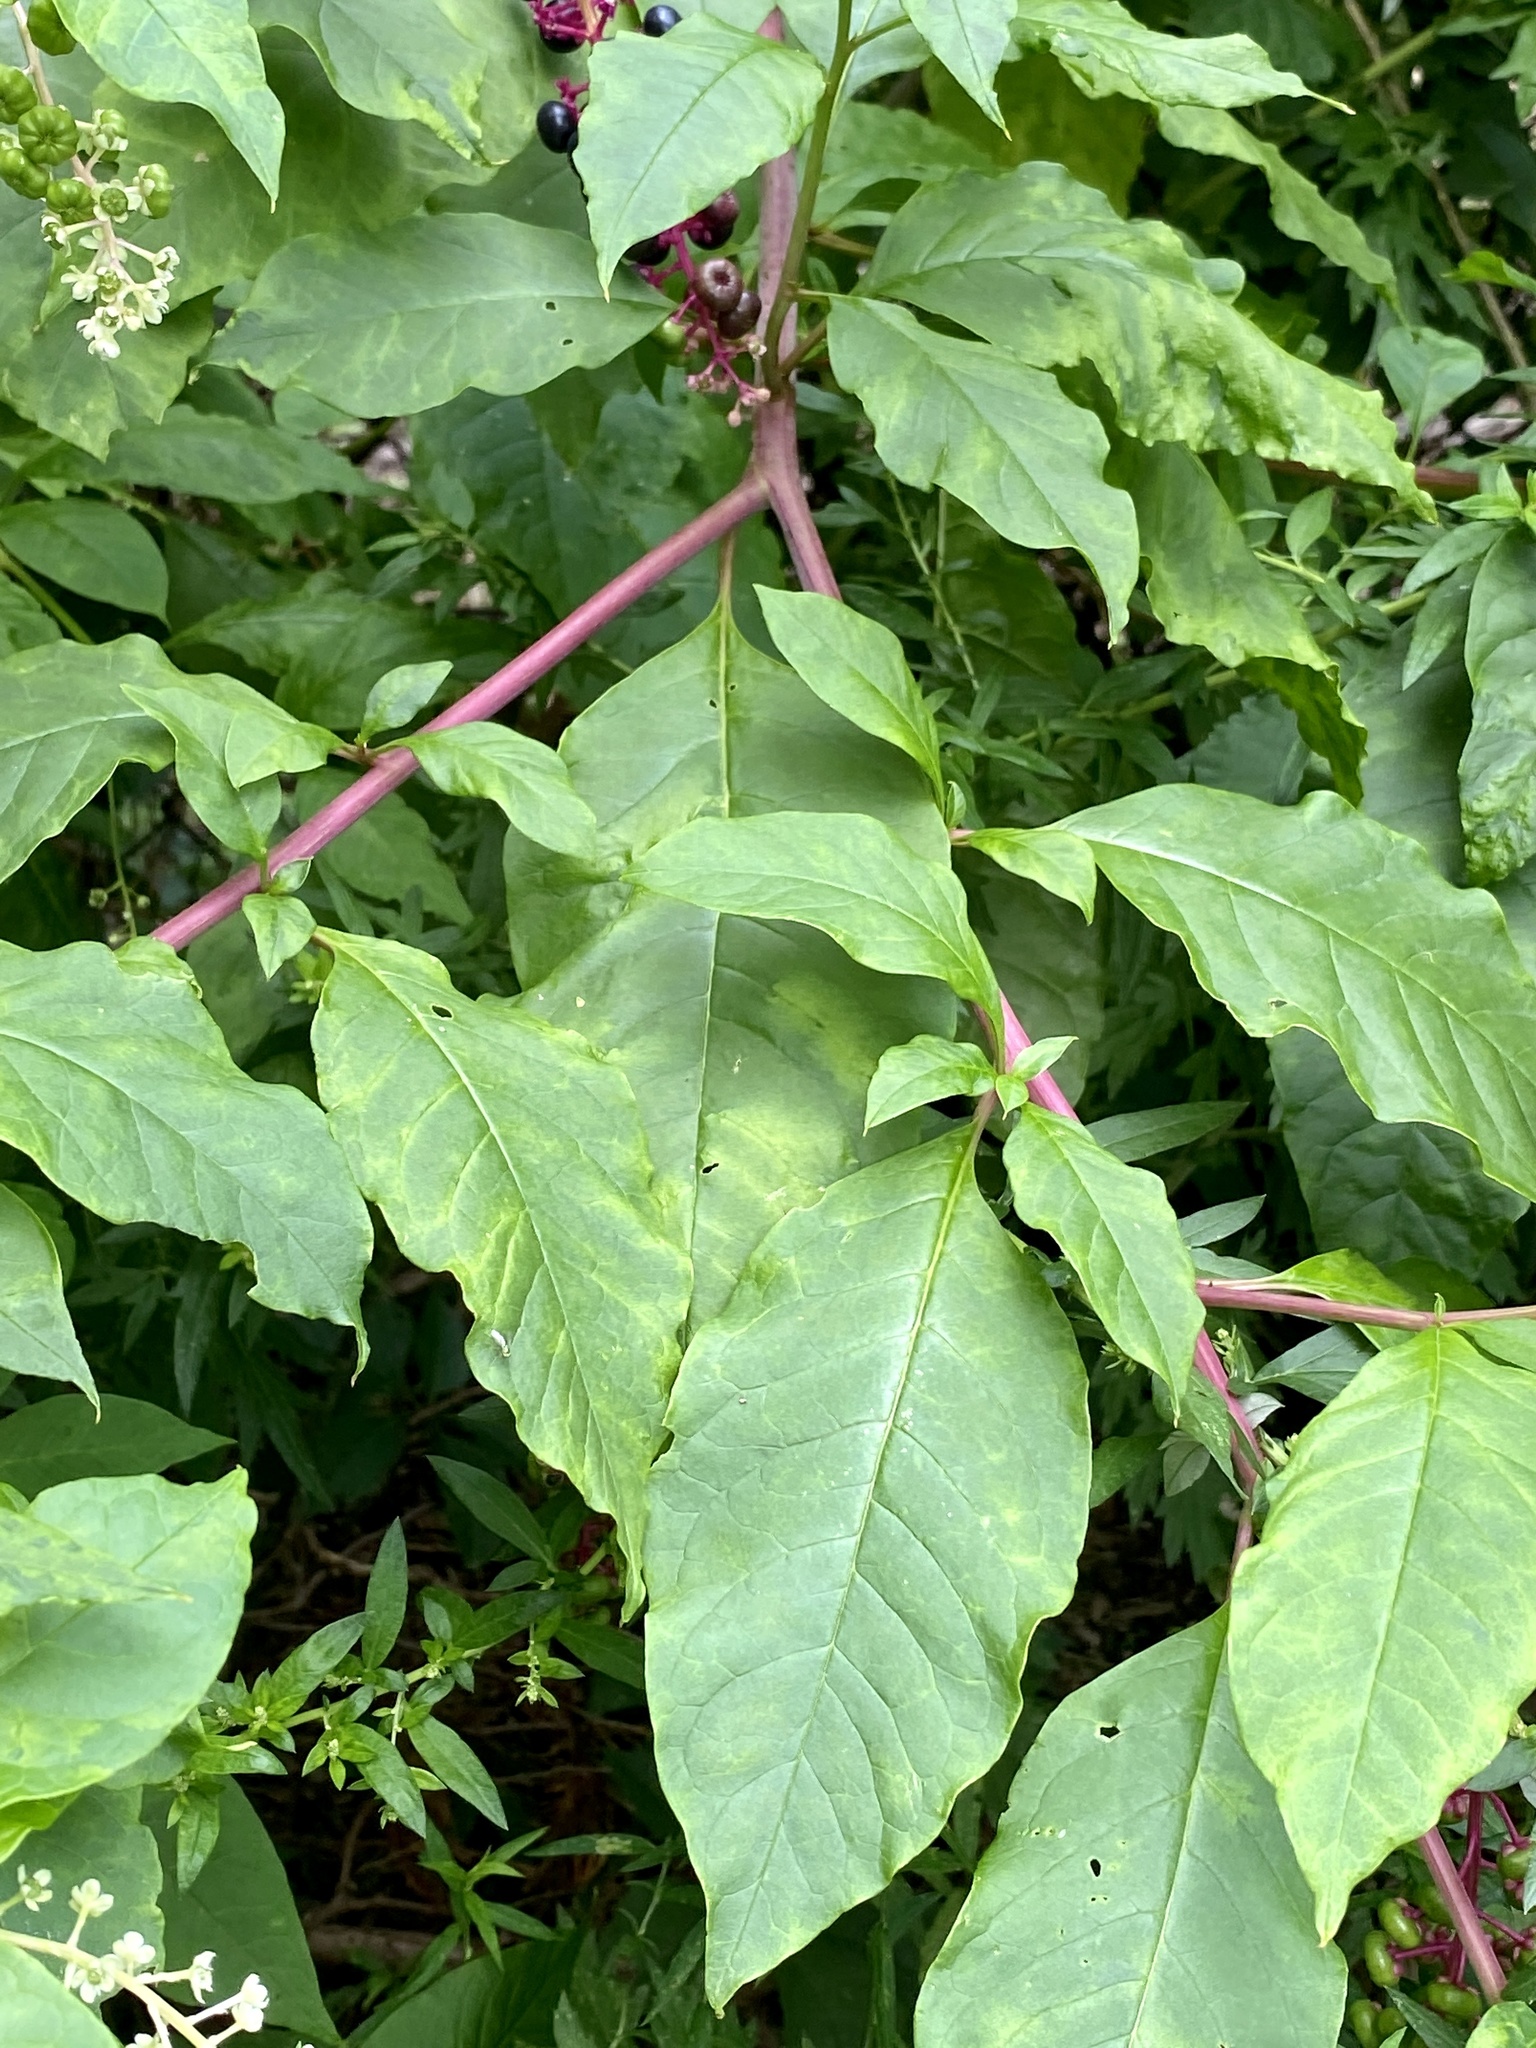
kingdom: Viruses
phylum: Pisuviricota
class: Stelpaviricetes
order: Patatavirales
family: Potyviridae
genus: Potyvirus
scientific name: Potyvirus Pokeweed mosaic virus
